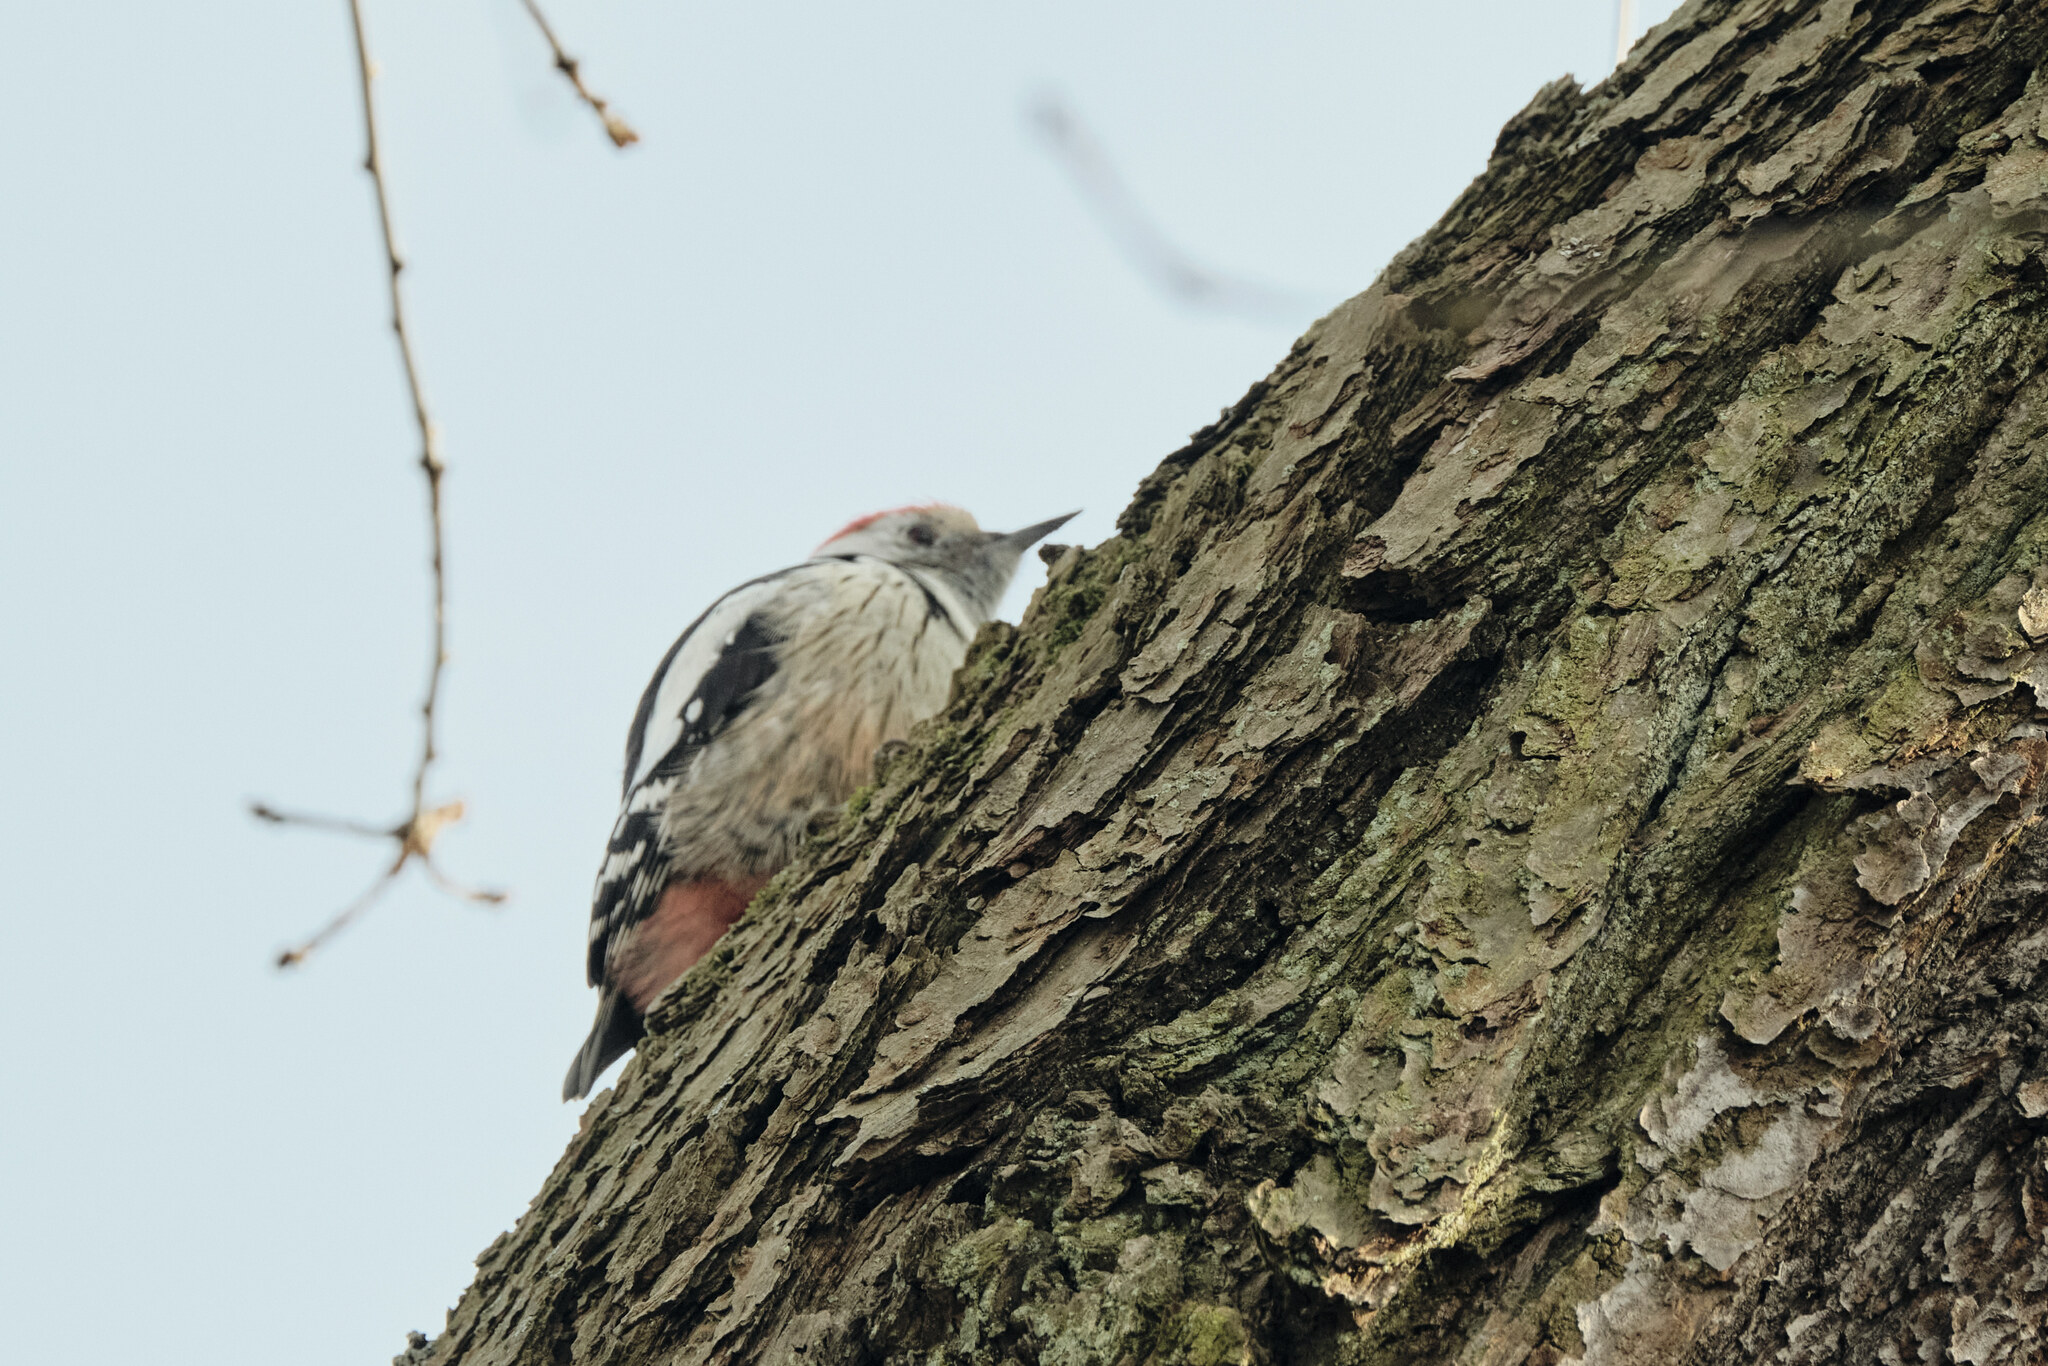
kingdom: Animalia
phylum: Chordata
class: Aves
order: Piciformes
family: Picidae
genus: Dendrocoptes
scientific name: Dendrocoptes medius
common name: Middle spotted woodpecker
